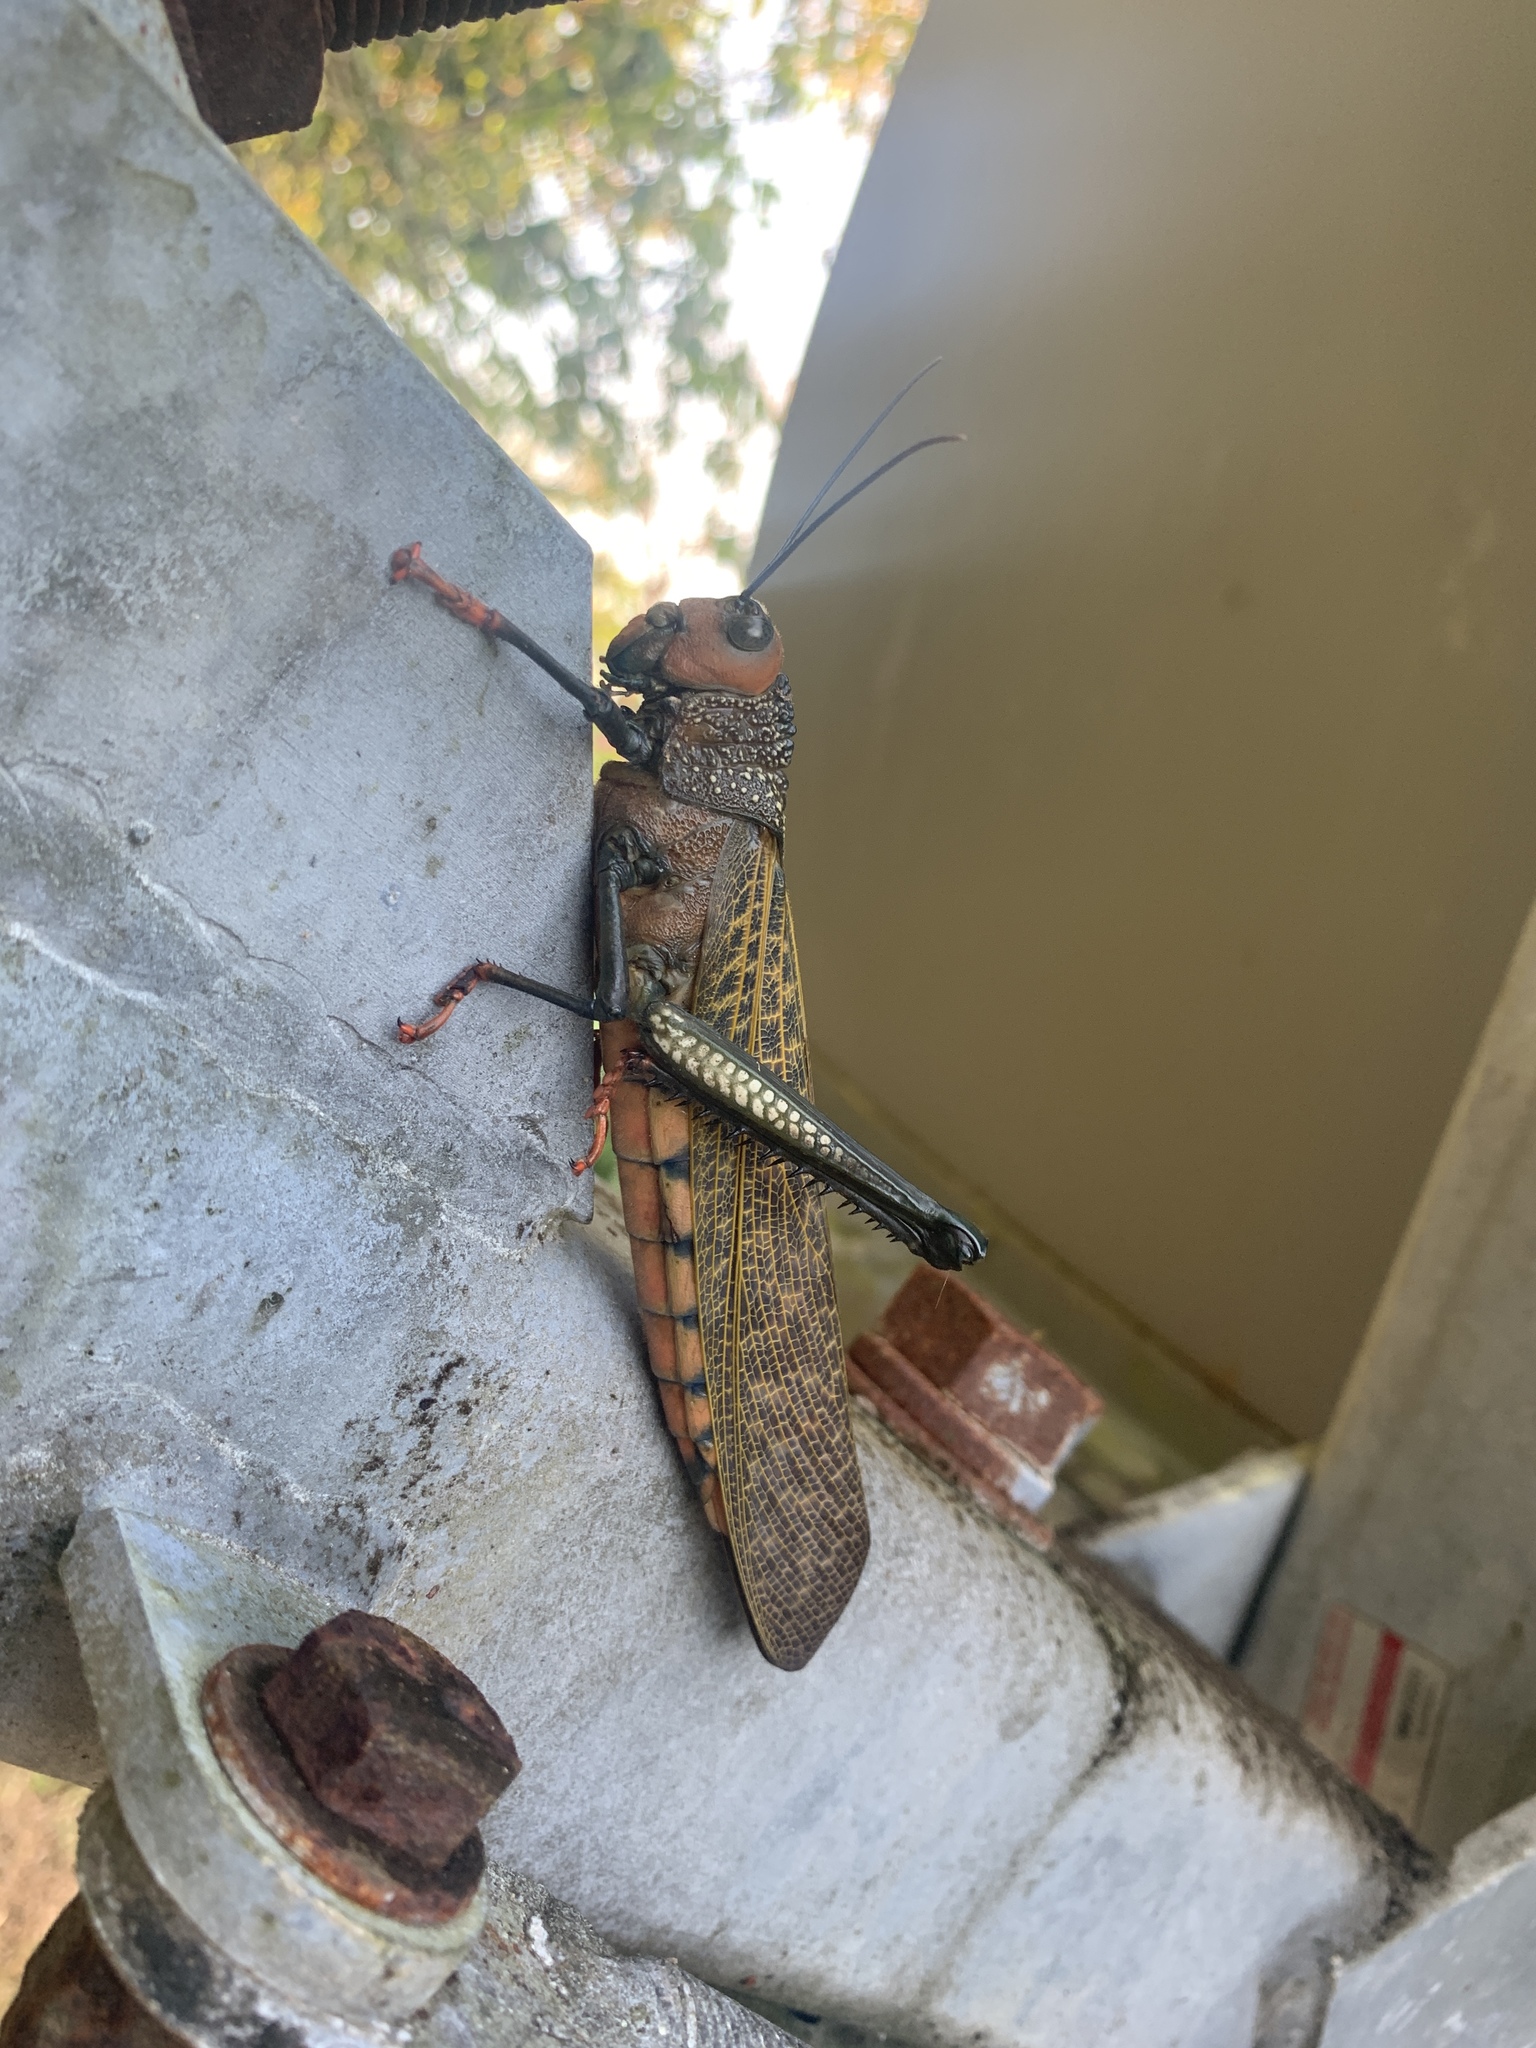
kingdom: Animalia
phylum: Arthropoda
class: Insecta
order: Orthoptera
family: Romaleidae
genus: Tropidacris
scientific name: Tropidacris cristata
